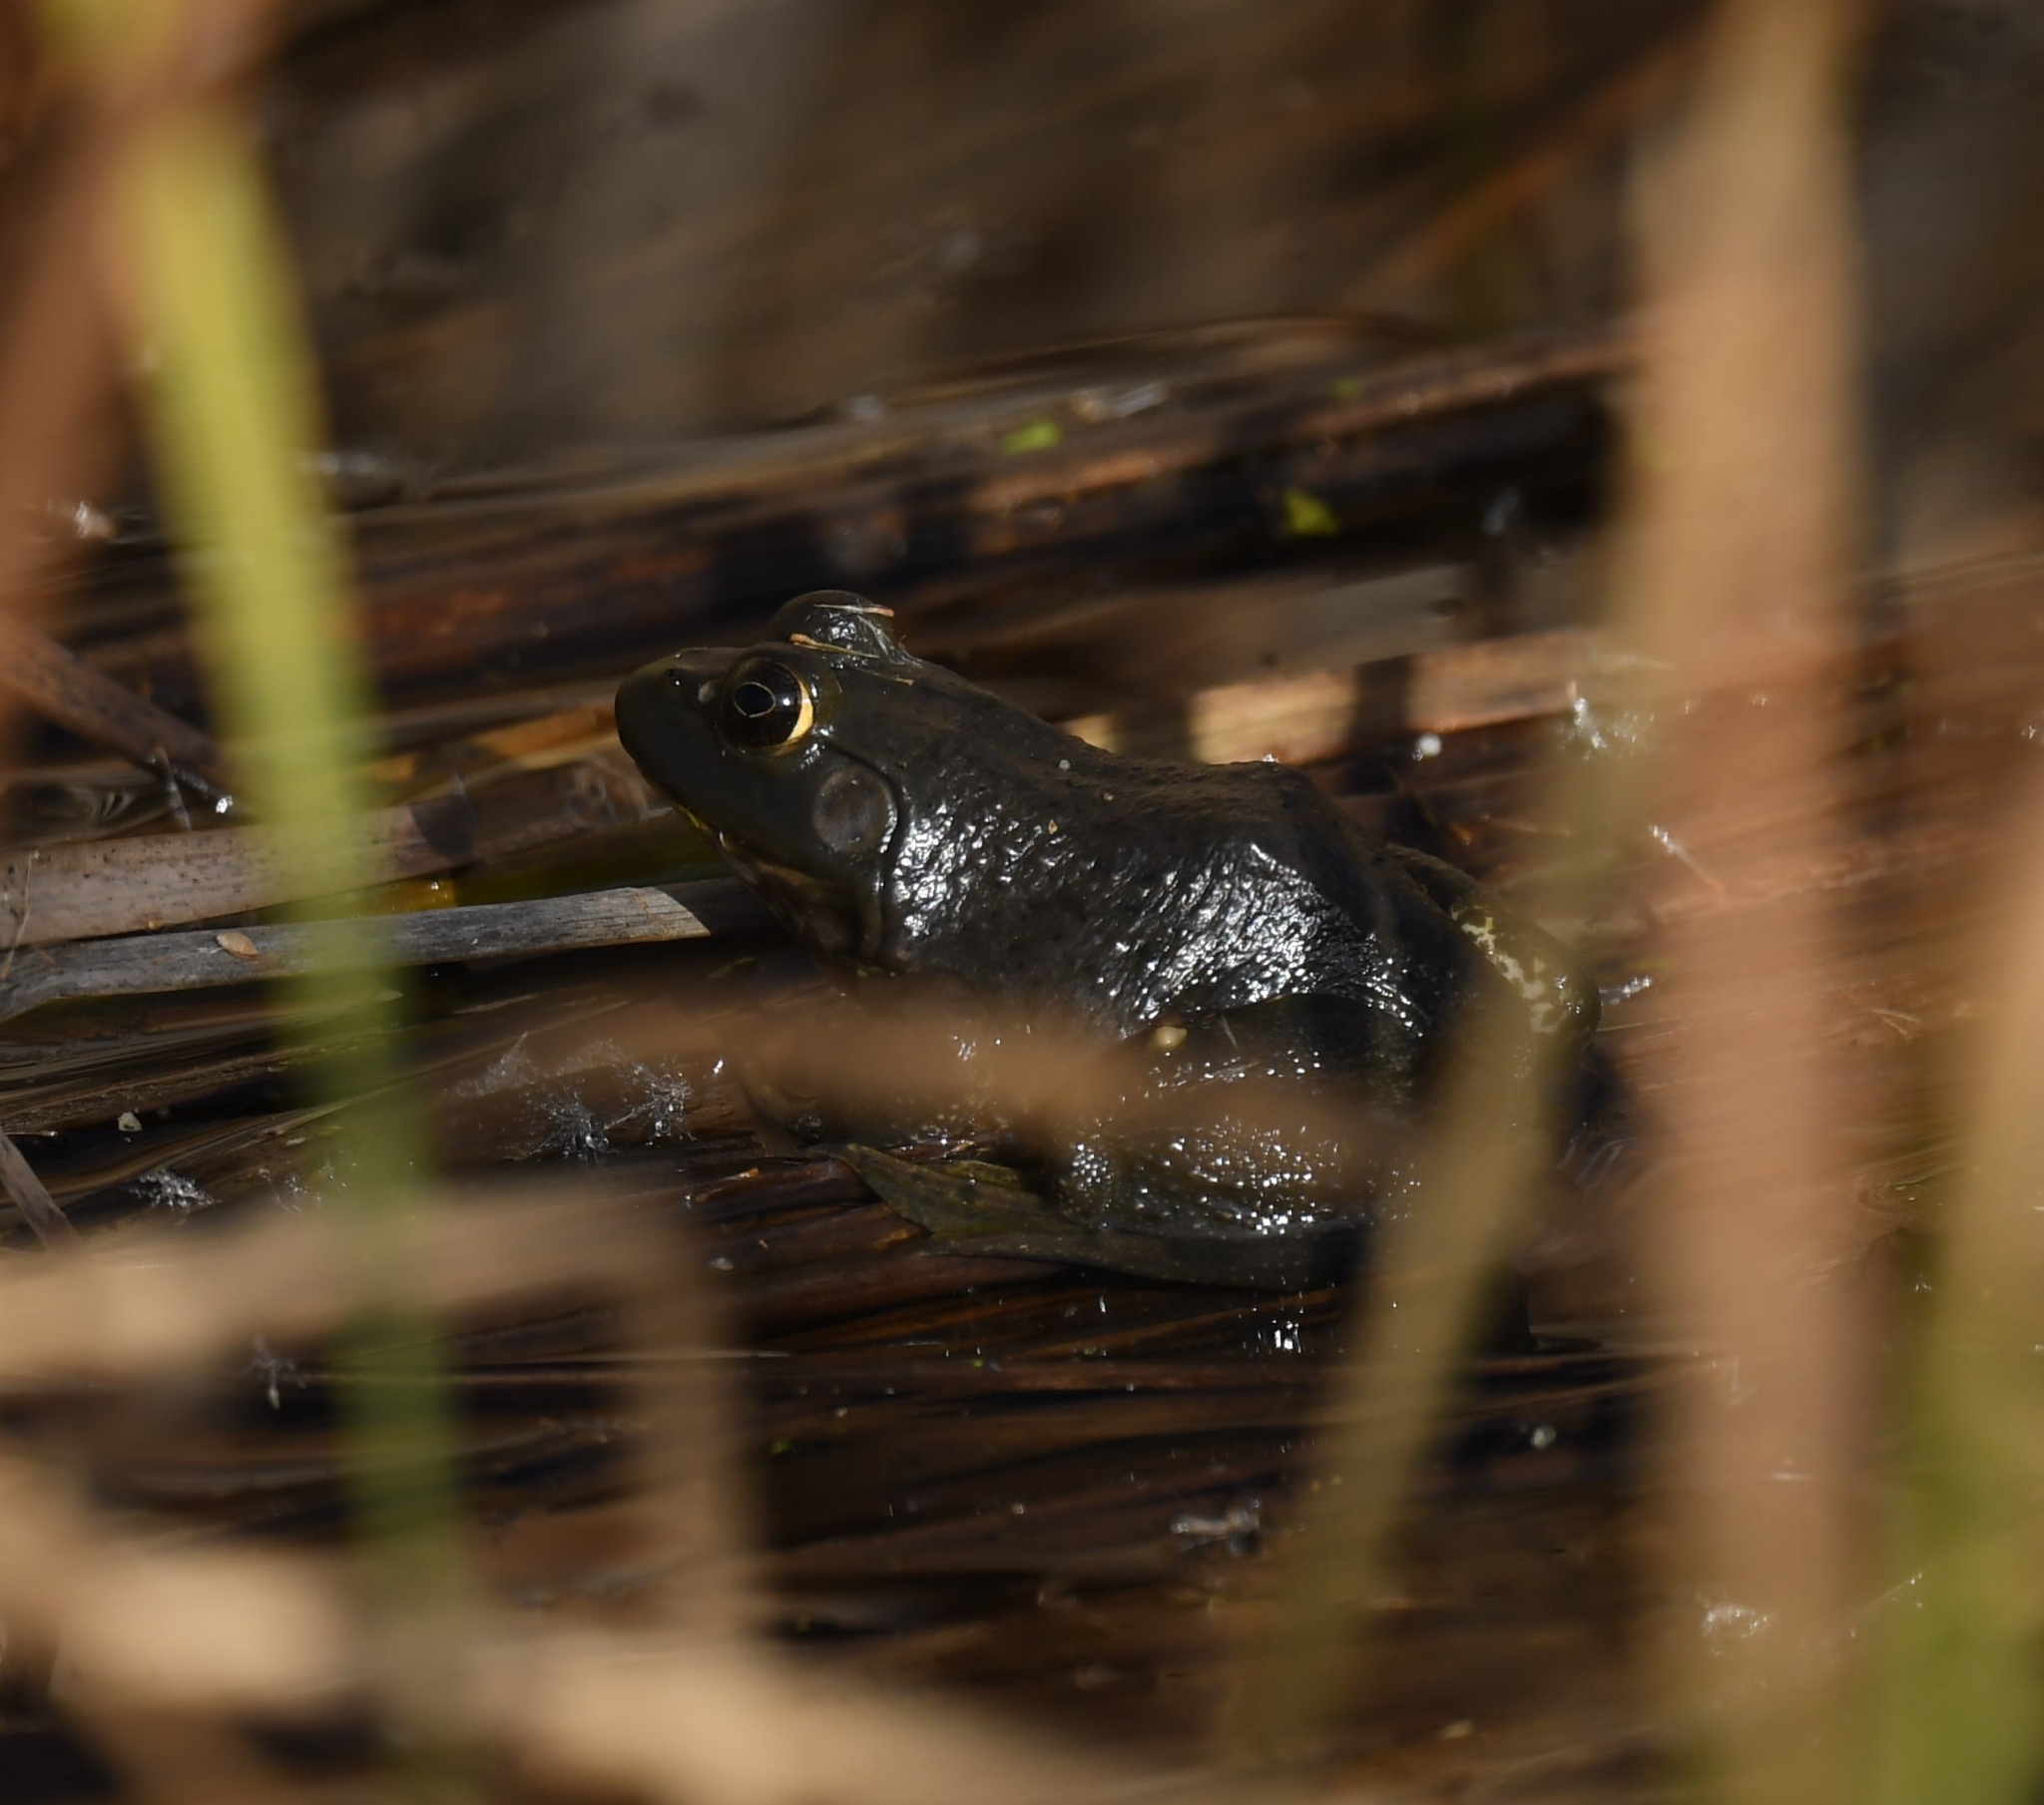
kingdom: Animalia
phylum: Chordata
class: Amphibia
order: Anura
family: Ranidae
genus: Lithobates
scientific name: Lithobates catesbeianus
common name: American bullfrog
